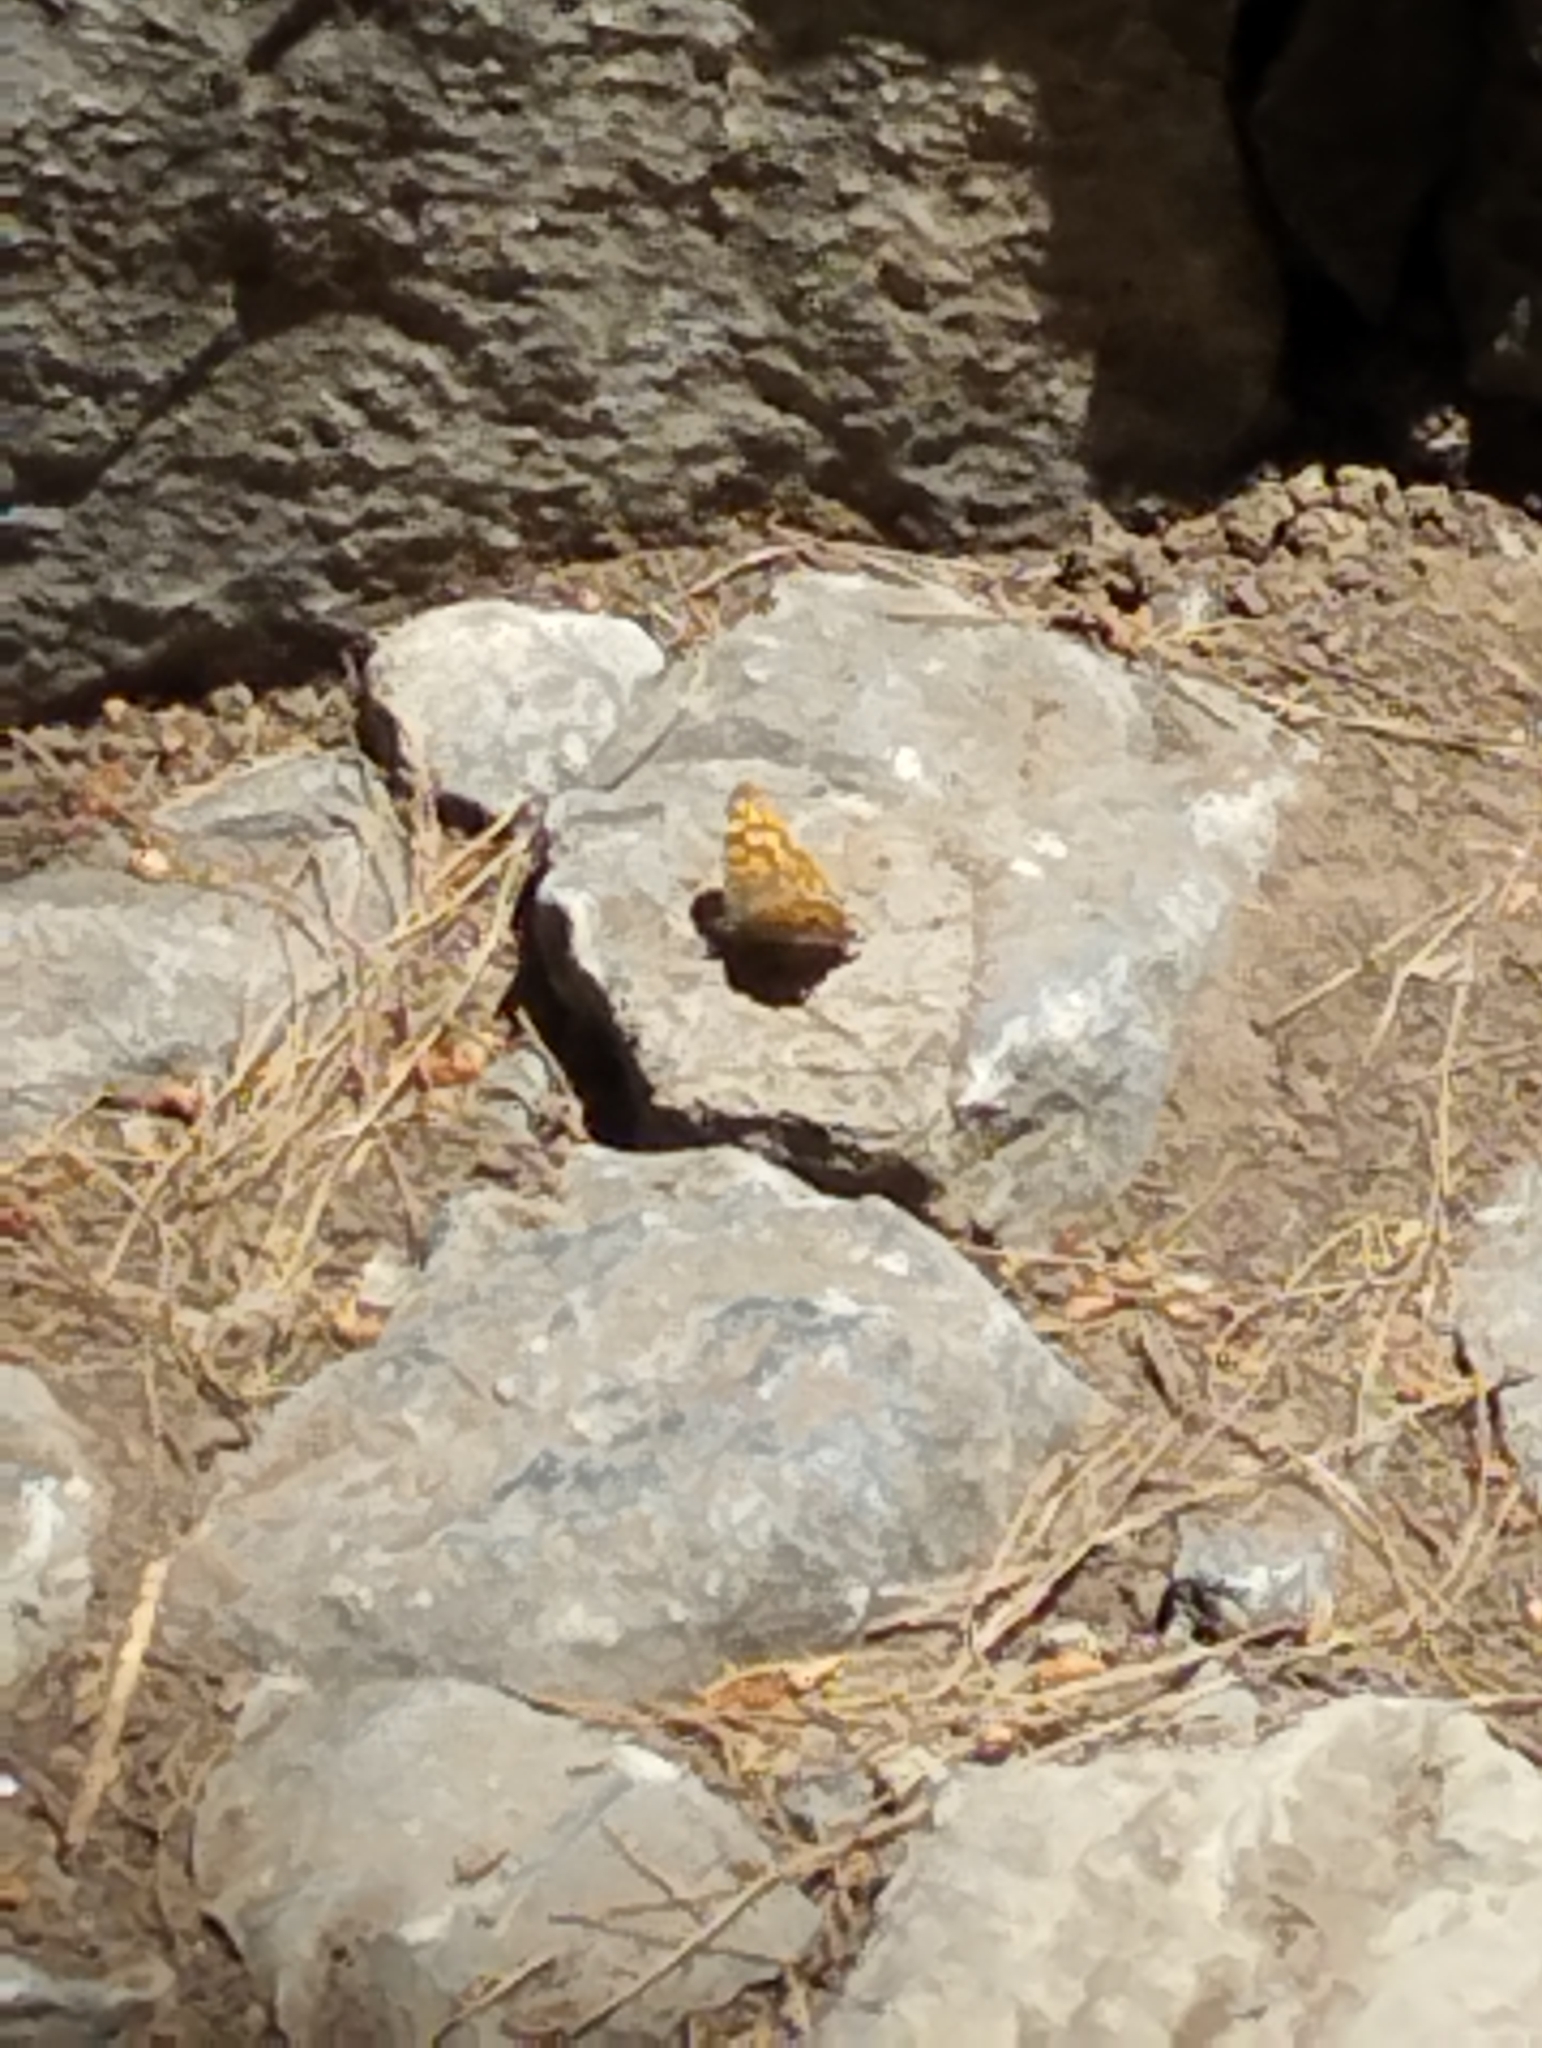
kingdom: Animalia
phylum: Arthropoda
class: Insecta
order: Lepidoptera
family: Nymphalidae
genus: Pararge
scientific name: Pararge aegeria
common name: Speckled wood
